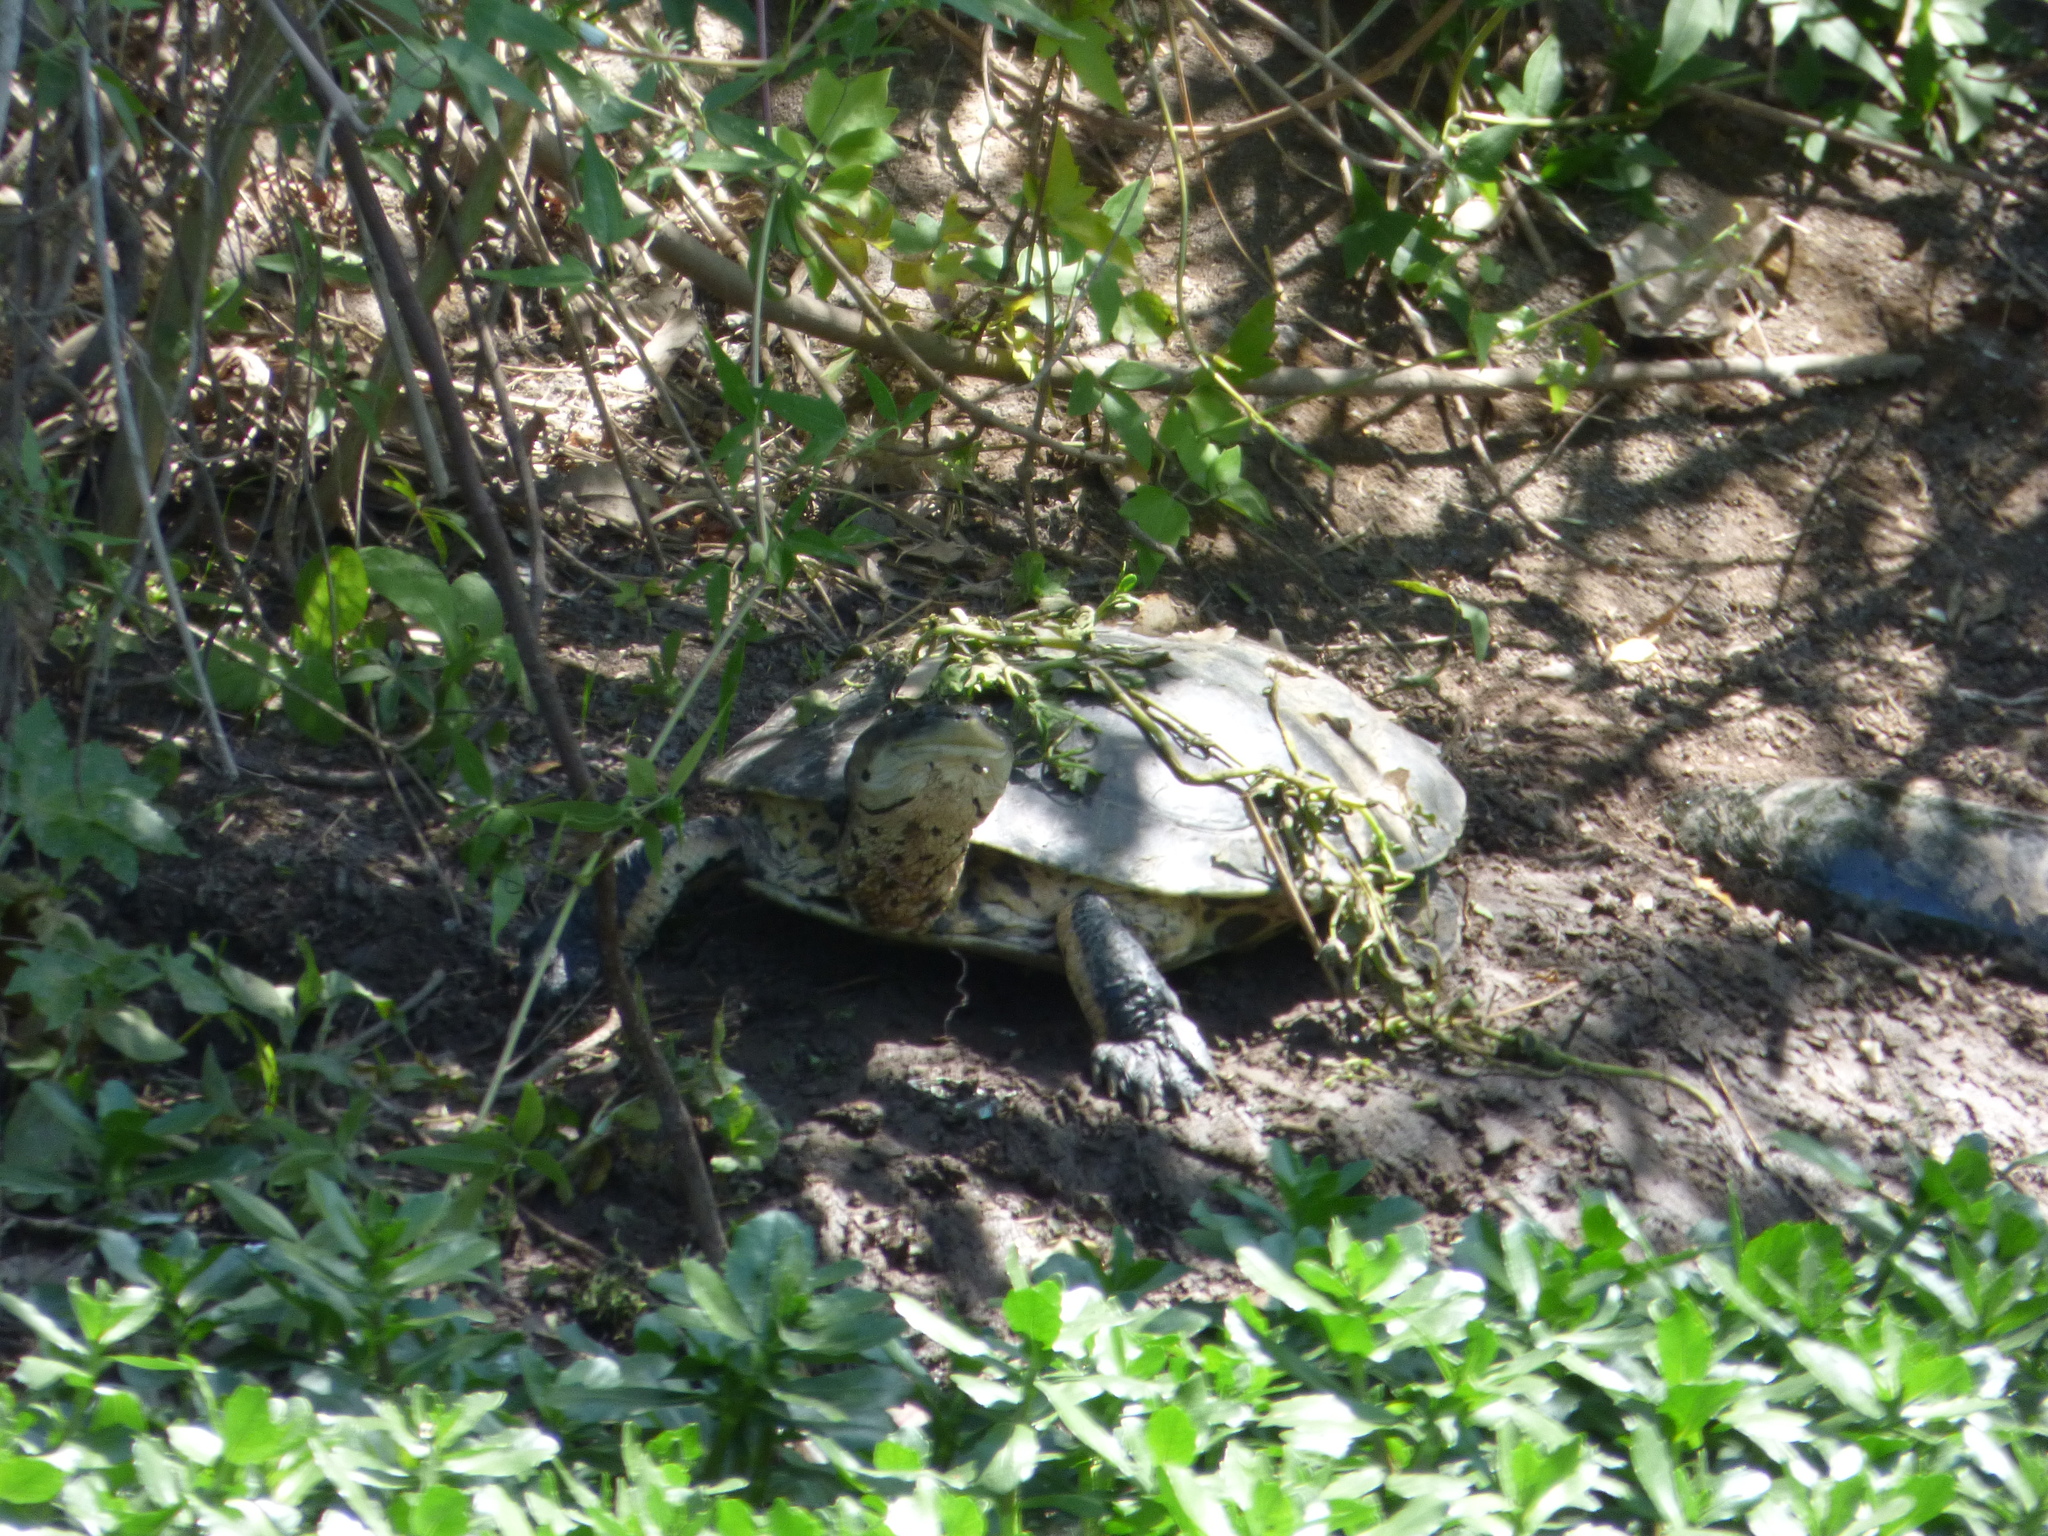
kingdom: Animalia
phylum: Chordata
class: Testudines
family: Chelidae
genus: Phrynops
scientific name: Phrynops hilarii
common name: Side-necked turtle of saint hillaire
